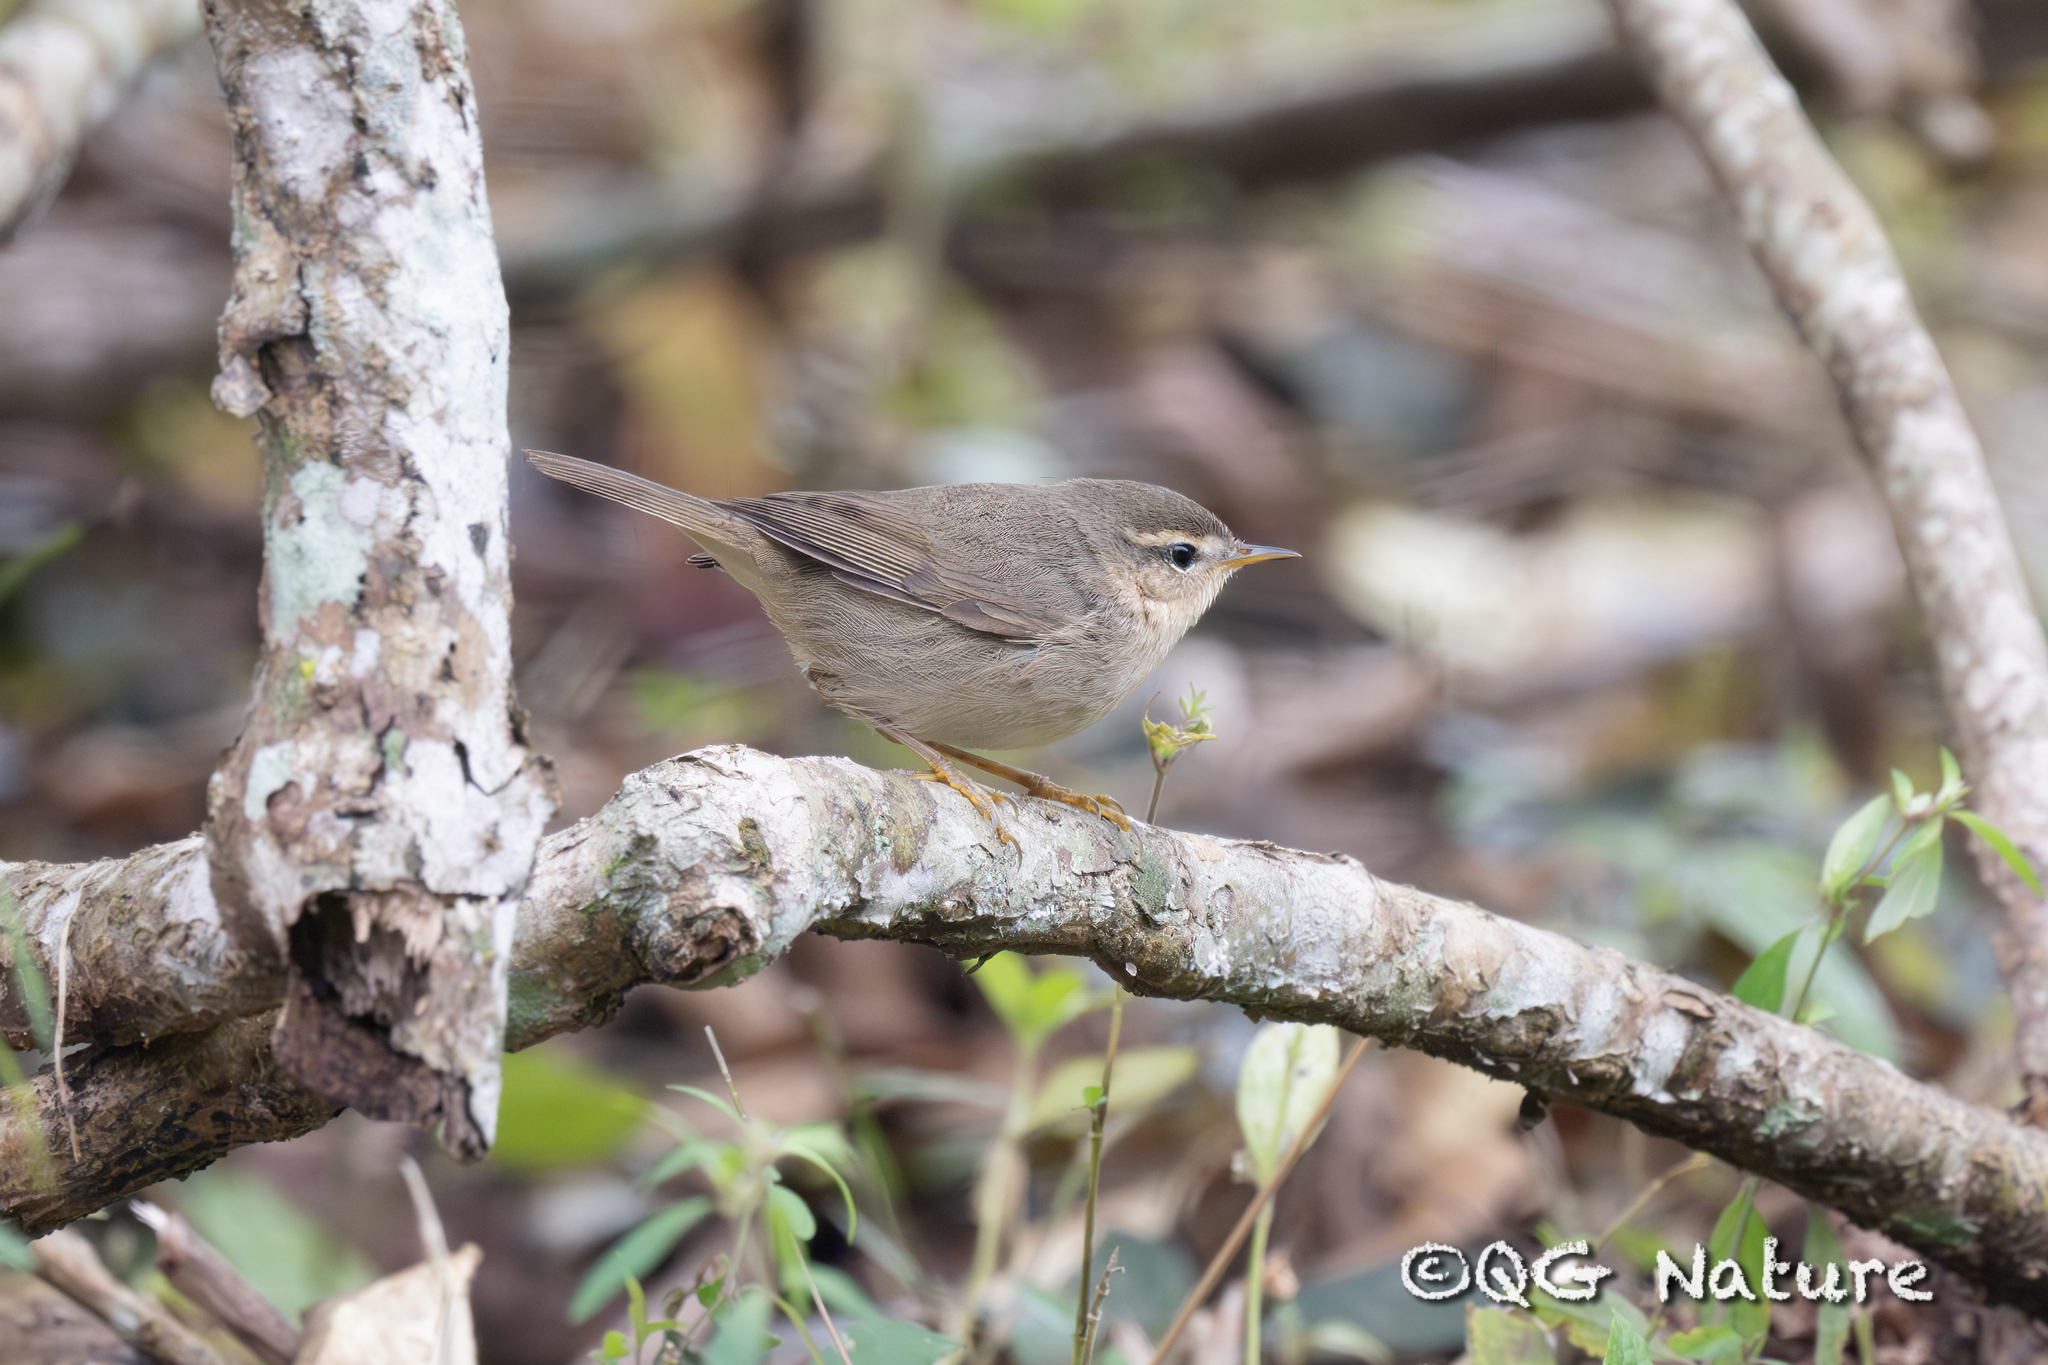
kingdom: Animalia
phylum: Chordata
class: Aves
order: Passeriformes
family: Phylloscopidae
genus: Phylloscopus
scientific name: Phylloscopus fuscatus
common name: Dusky warbler
